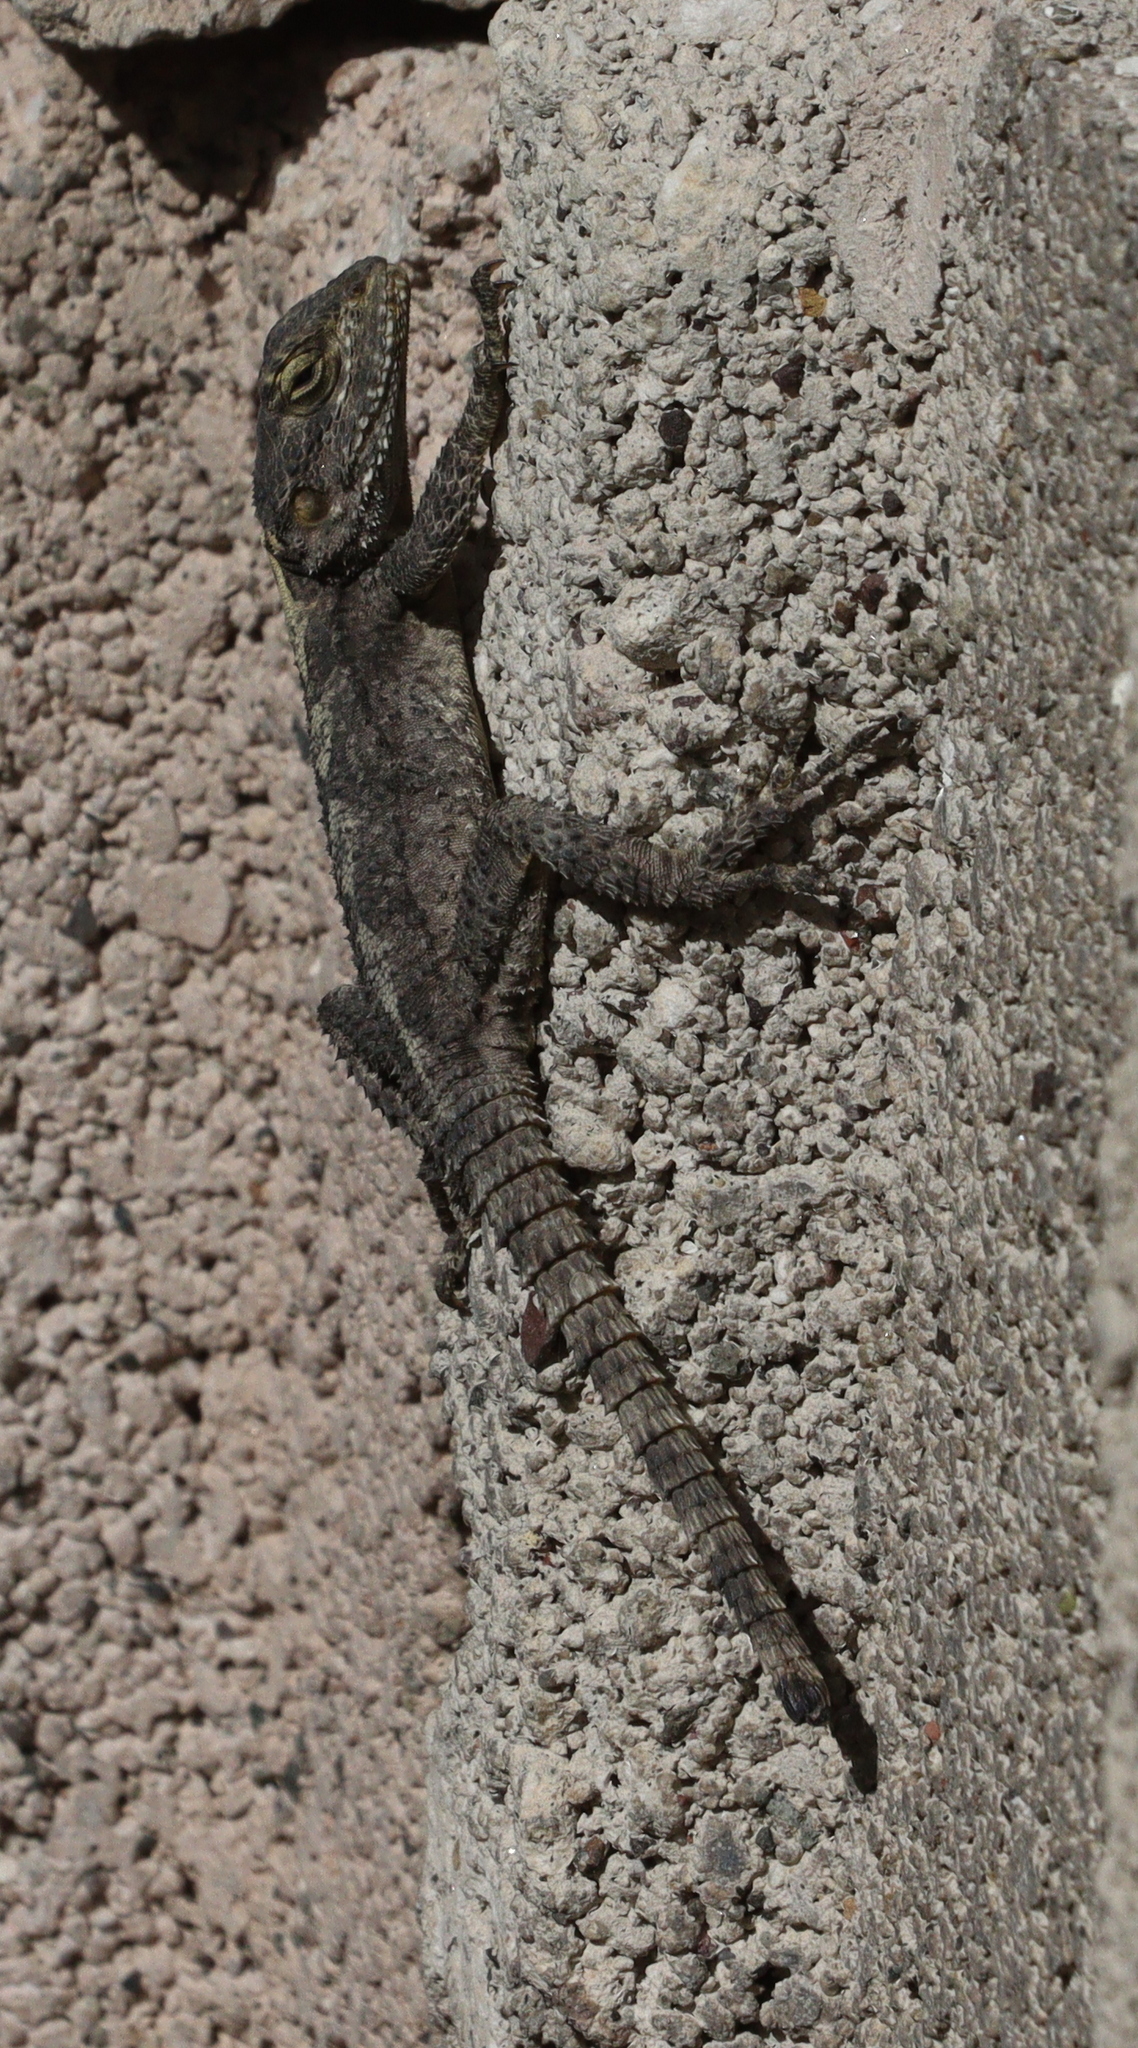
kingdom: Animalia
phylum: Chordata
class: Squamata
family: Agamidae
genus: Stellagama
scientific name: Stellagama stellio
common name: Starred agama
